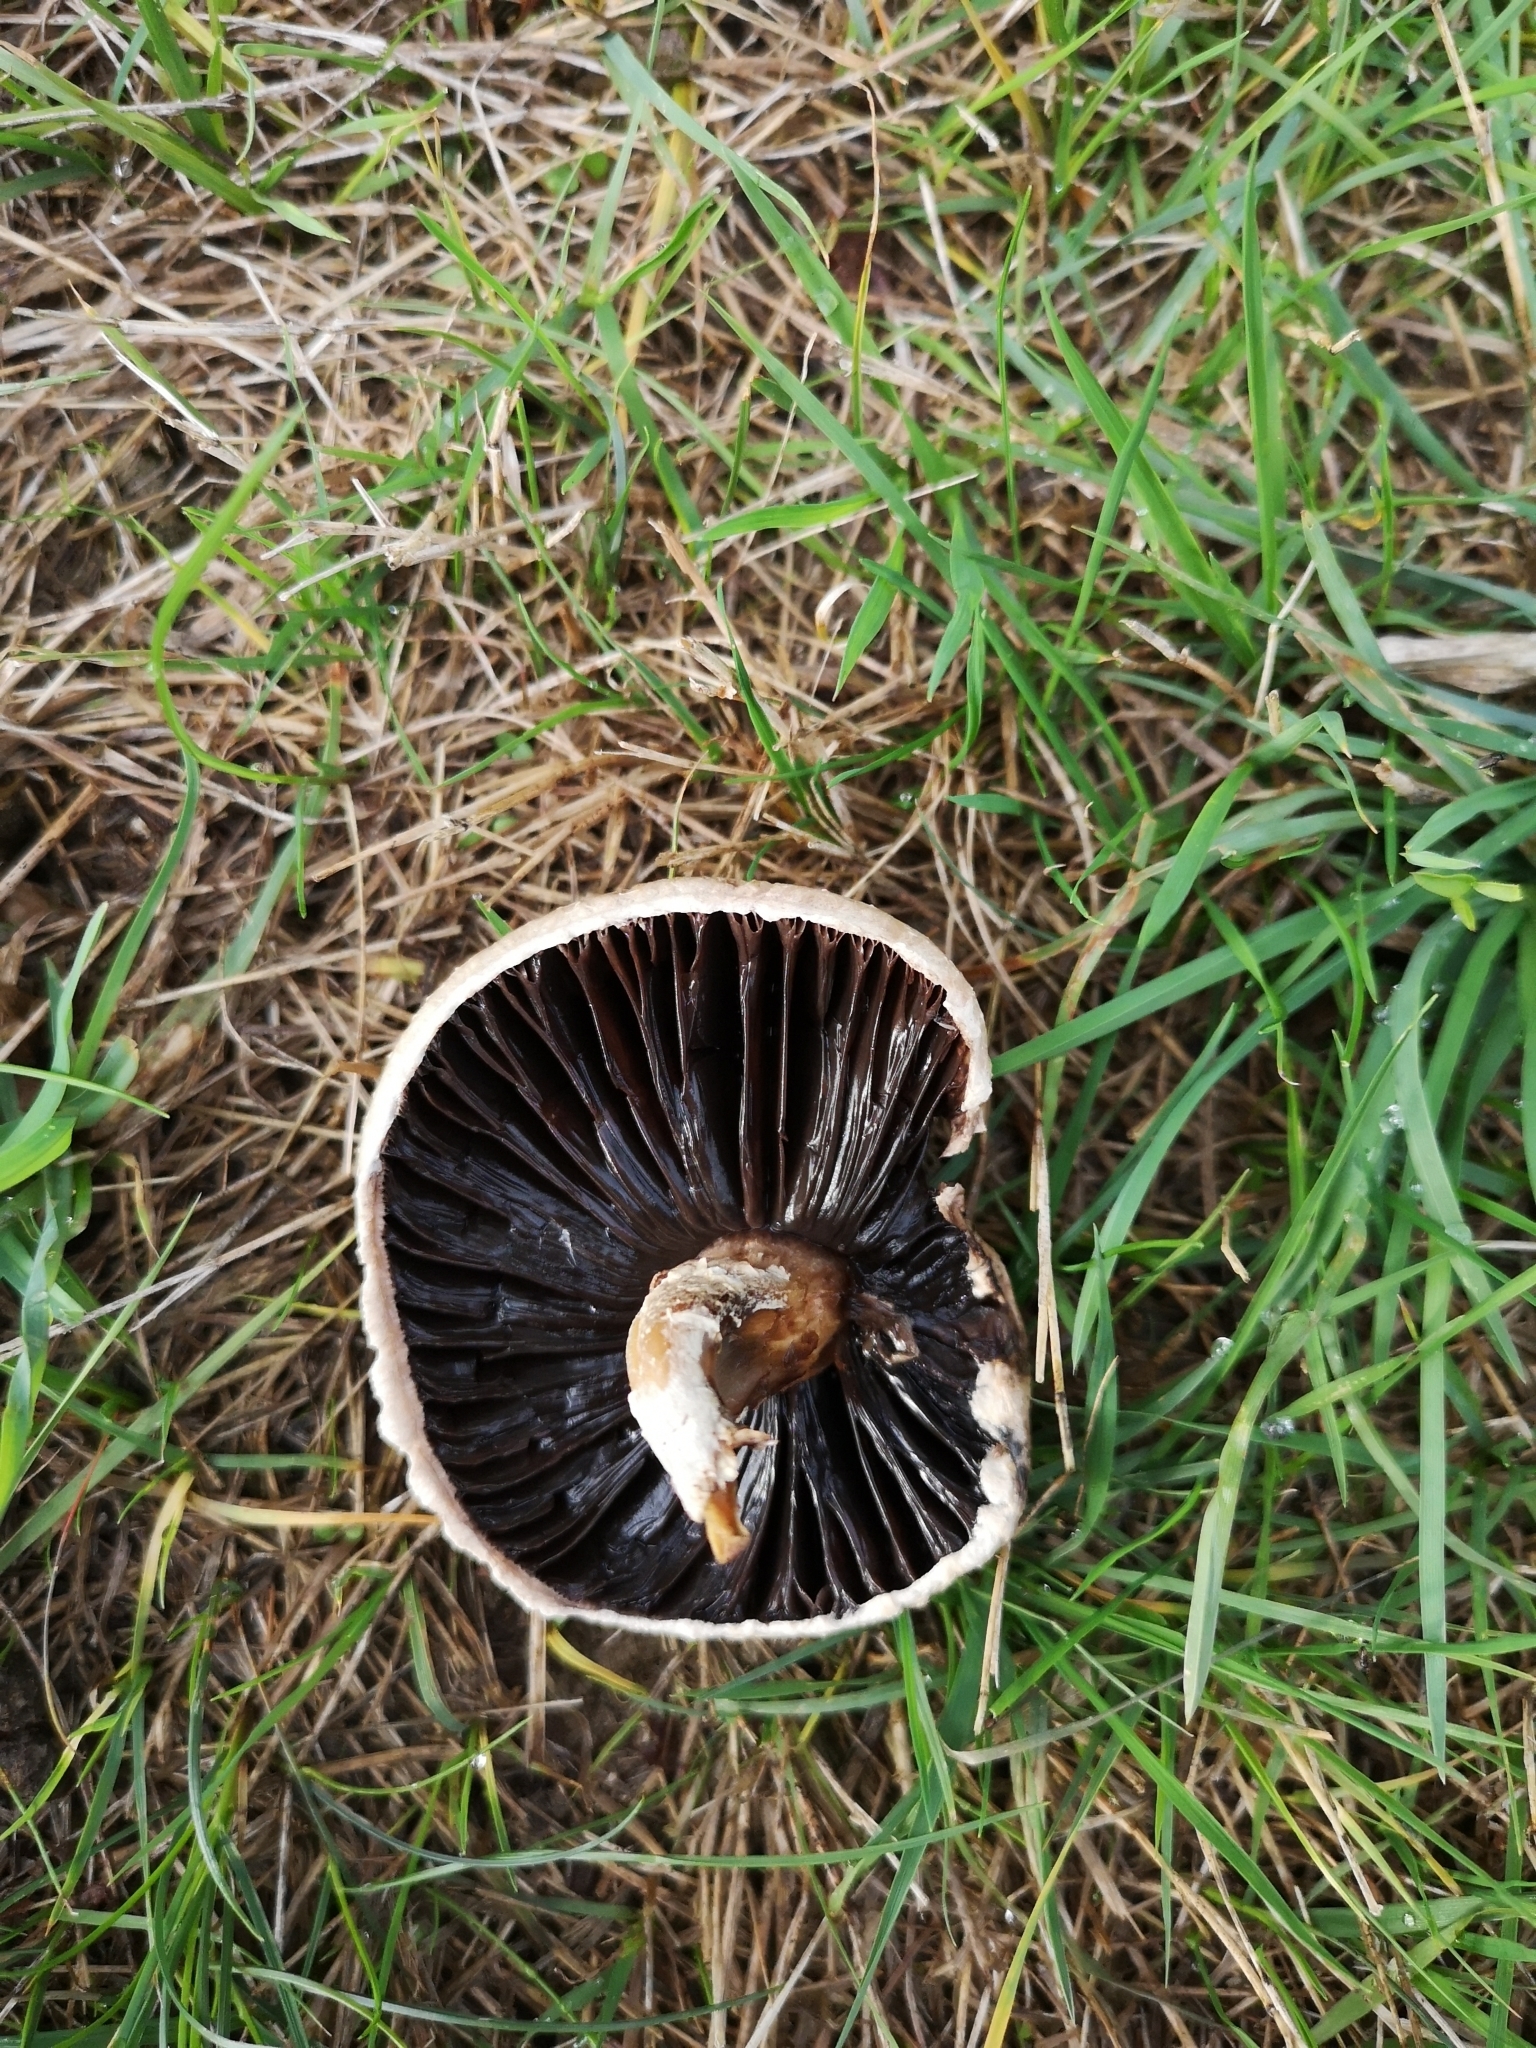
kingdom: Fungi
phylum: Basidiomycota
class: Agaricomycetes
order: Agaricales
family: Agaricaceae
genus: Agaricus
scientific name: Agaricus campestris
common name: Field mushroom
